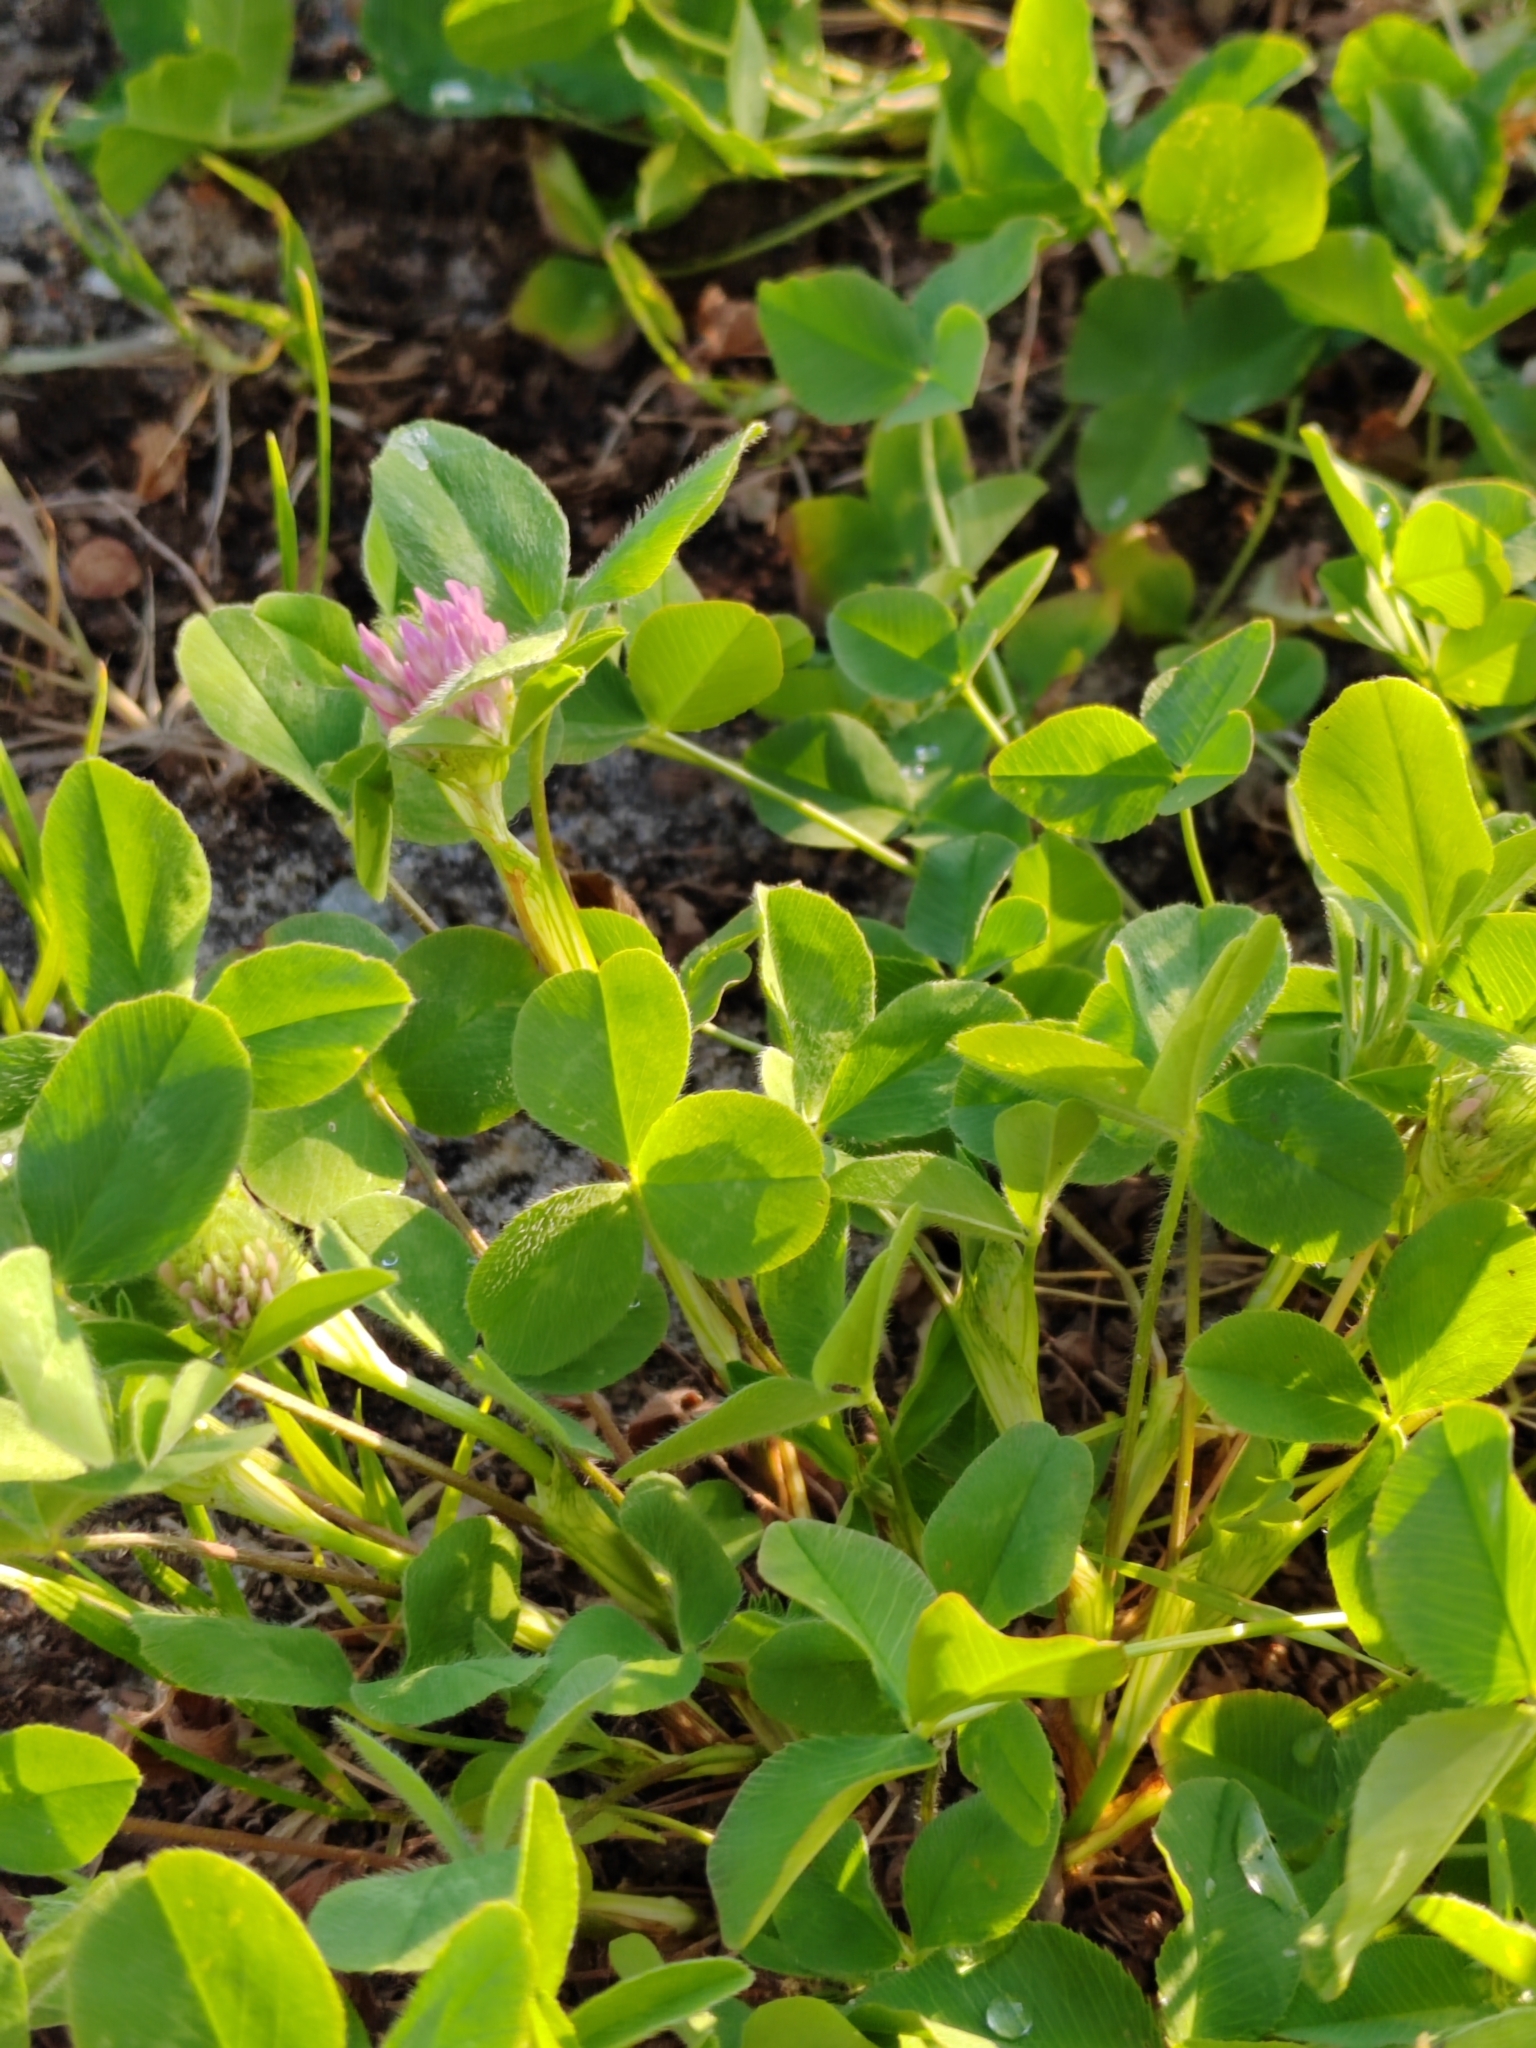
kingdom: Plantae
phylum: Tracheophyta
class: Magnoliopsida
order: Fabales
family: Fabaceae
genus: Trifolium
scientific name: Trifolium pratense
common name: Red clover
